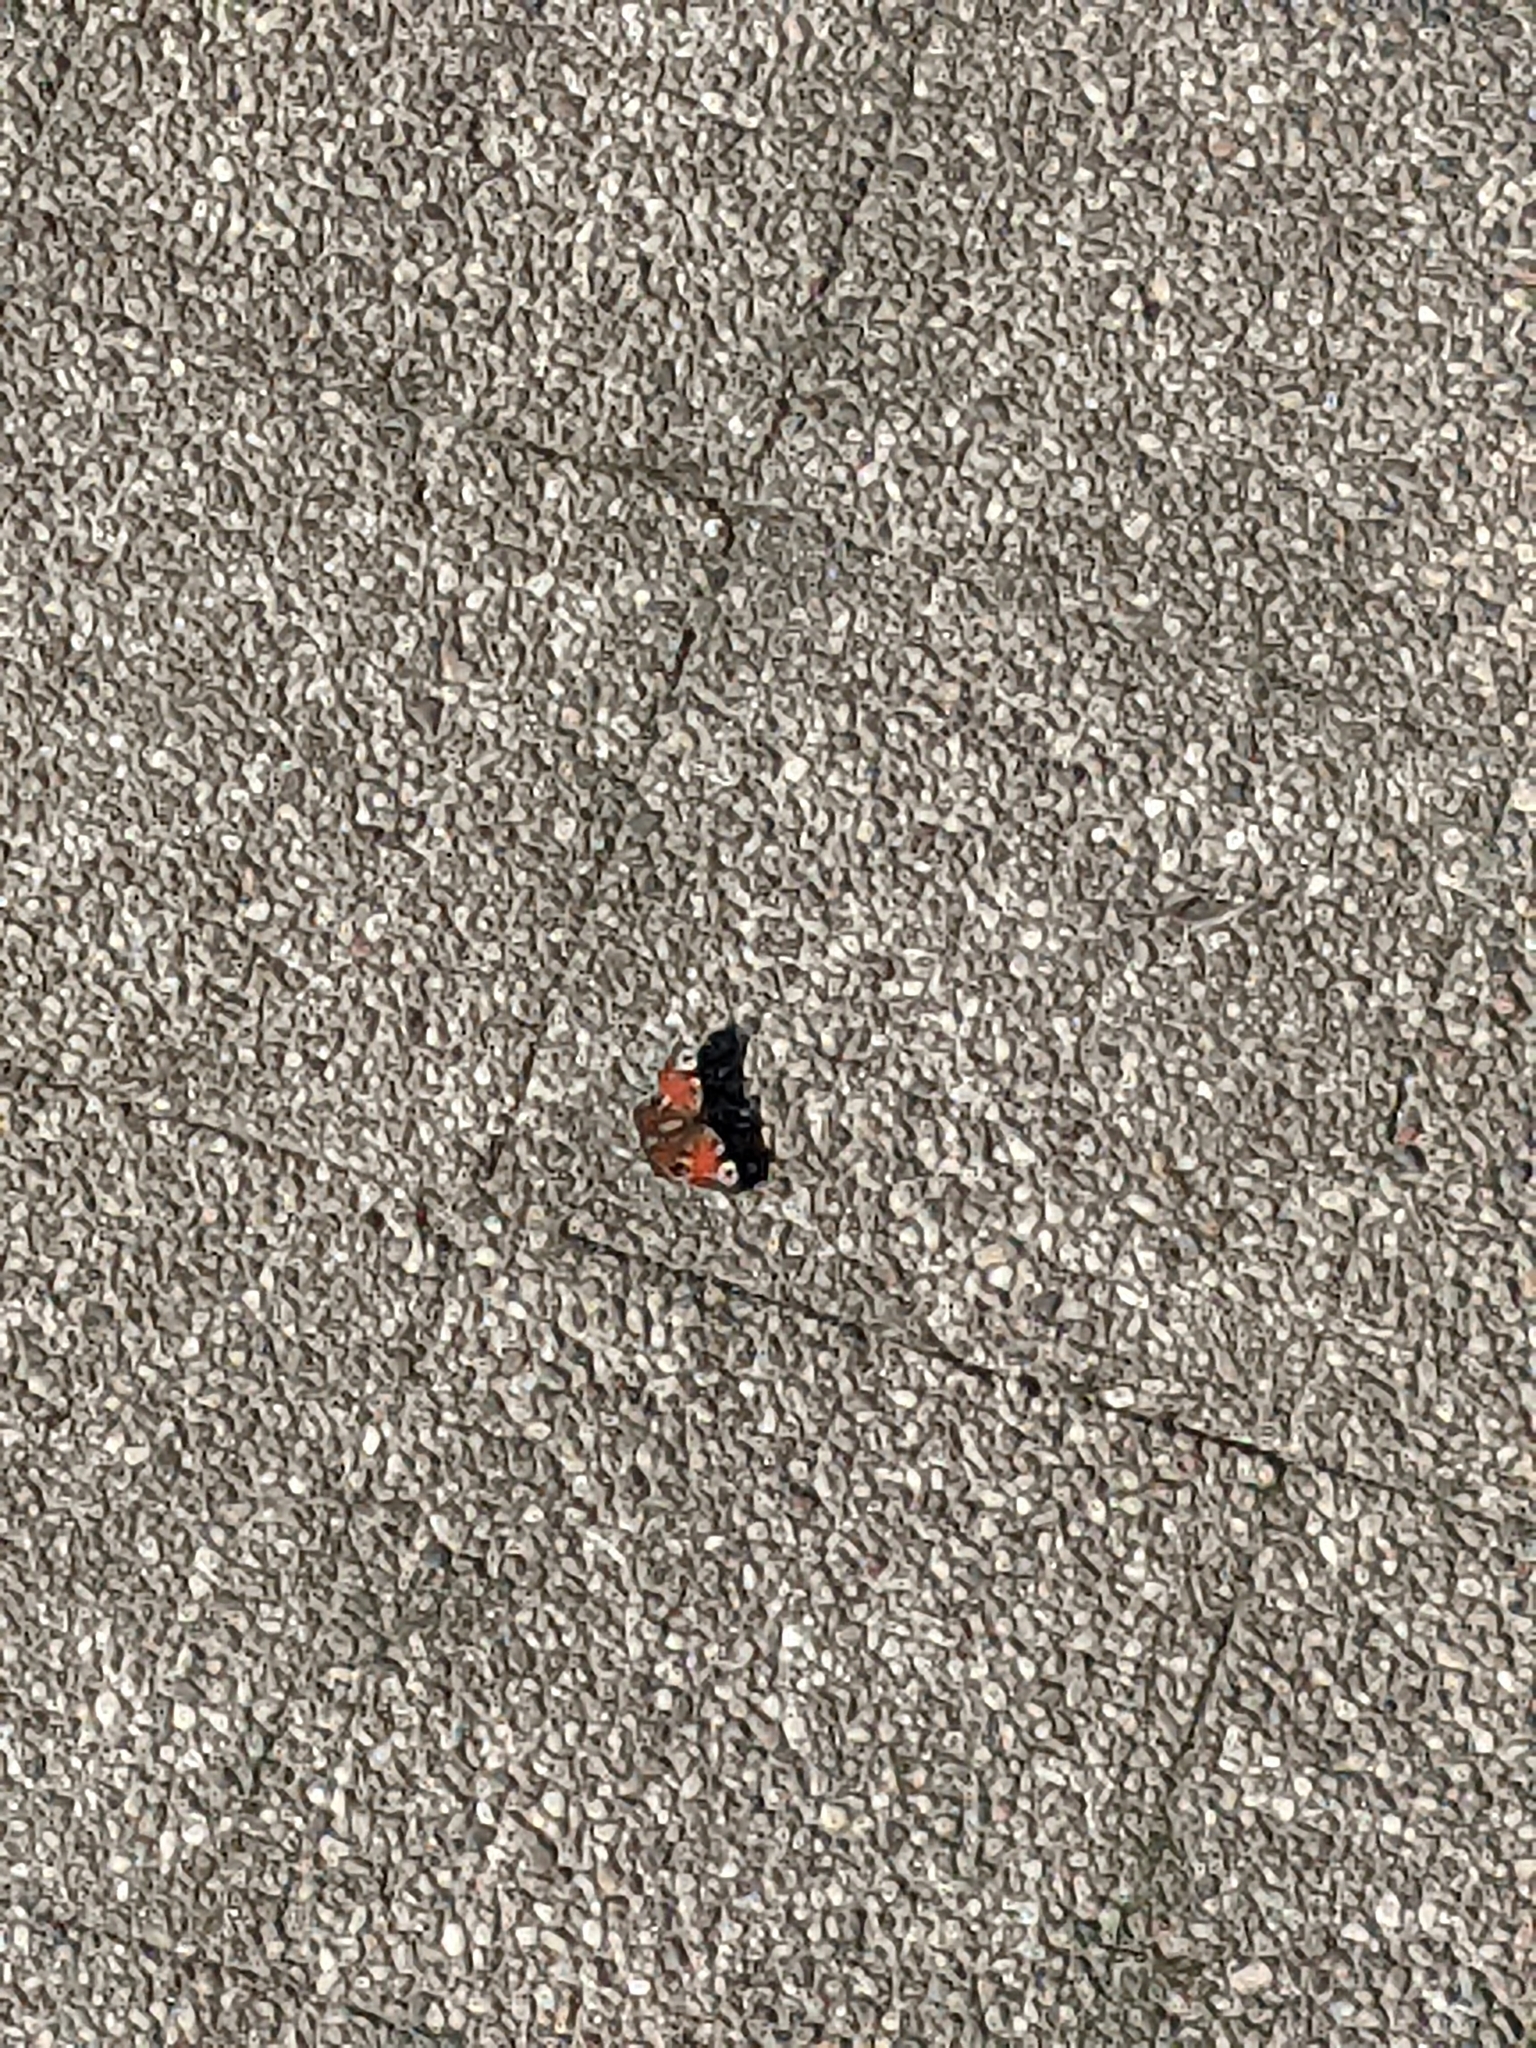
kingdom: Animalia
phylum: Arthropoda
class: Insecta
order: Lepidoptera
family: Nymphalidae
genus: Aglais
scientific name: Aglais io
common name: Peacock
